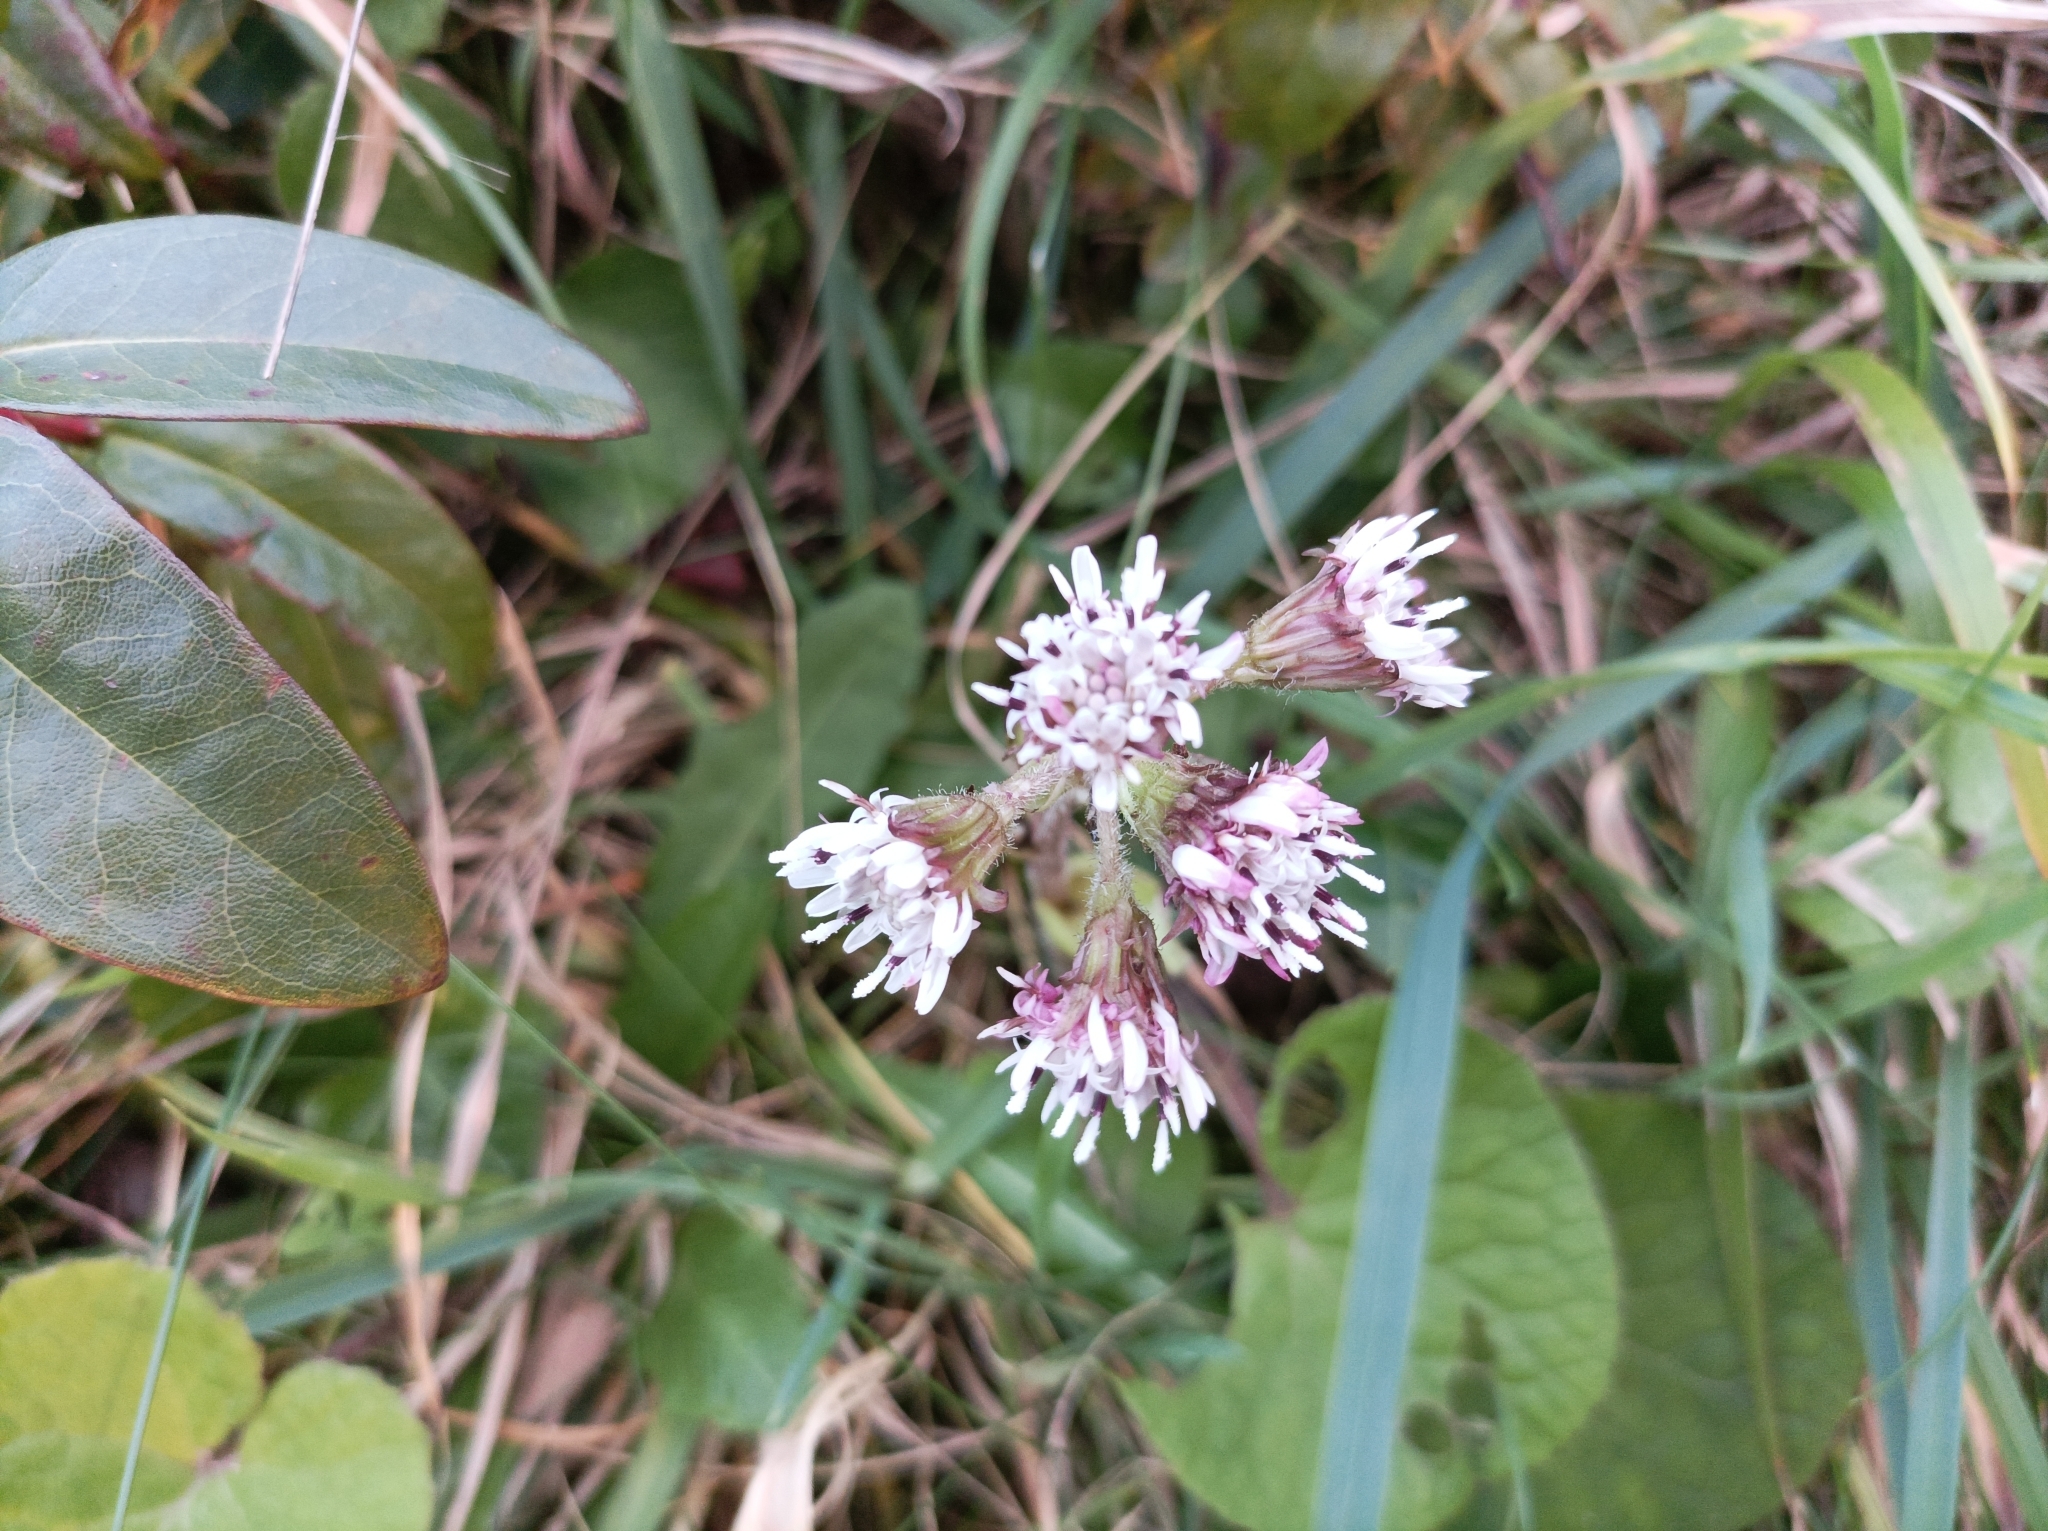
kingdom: Plantae
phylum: Tracheophyta
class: Magnoliopsida
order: Asterales
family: Asteraceae
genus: Petasites
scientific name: Petasites pyrenaicus
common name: Winter heliotrope
